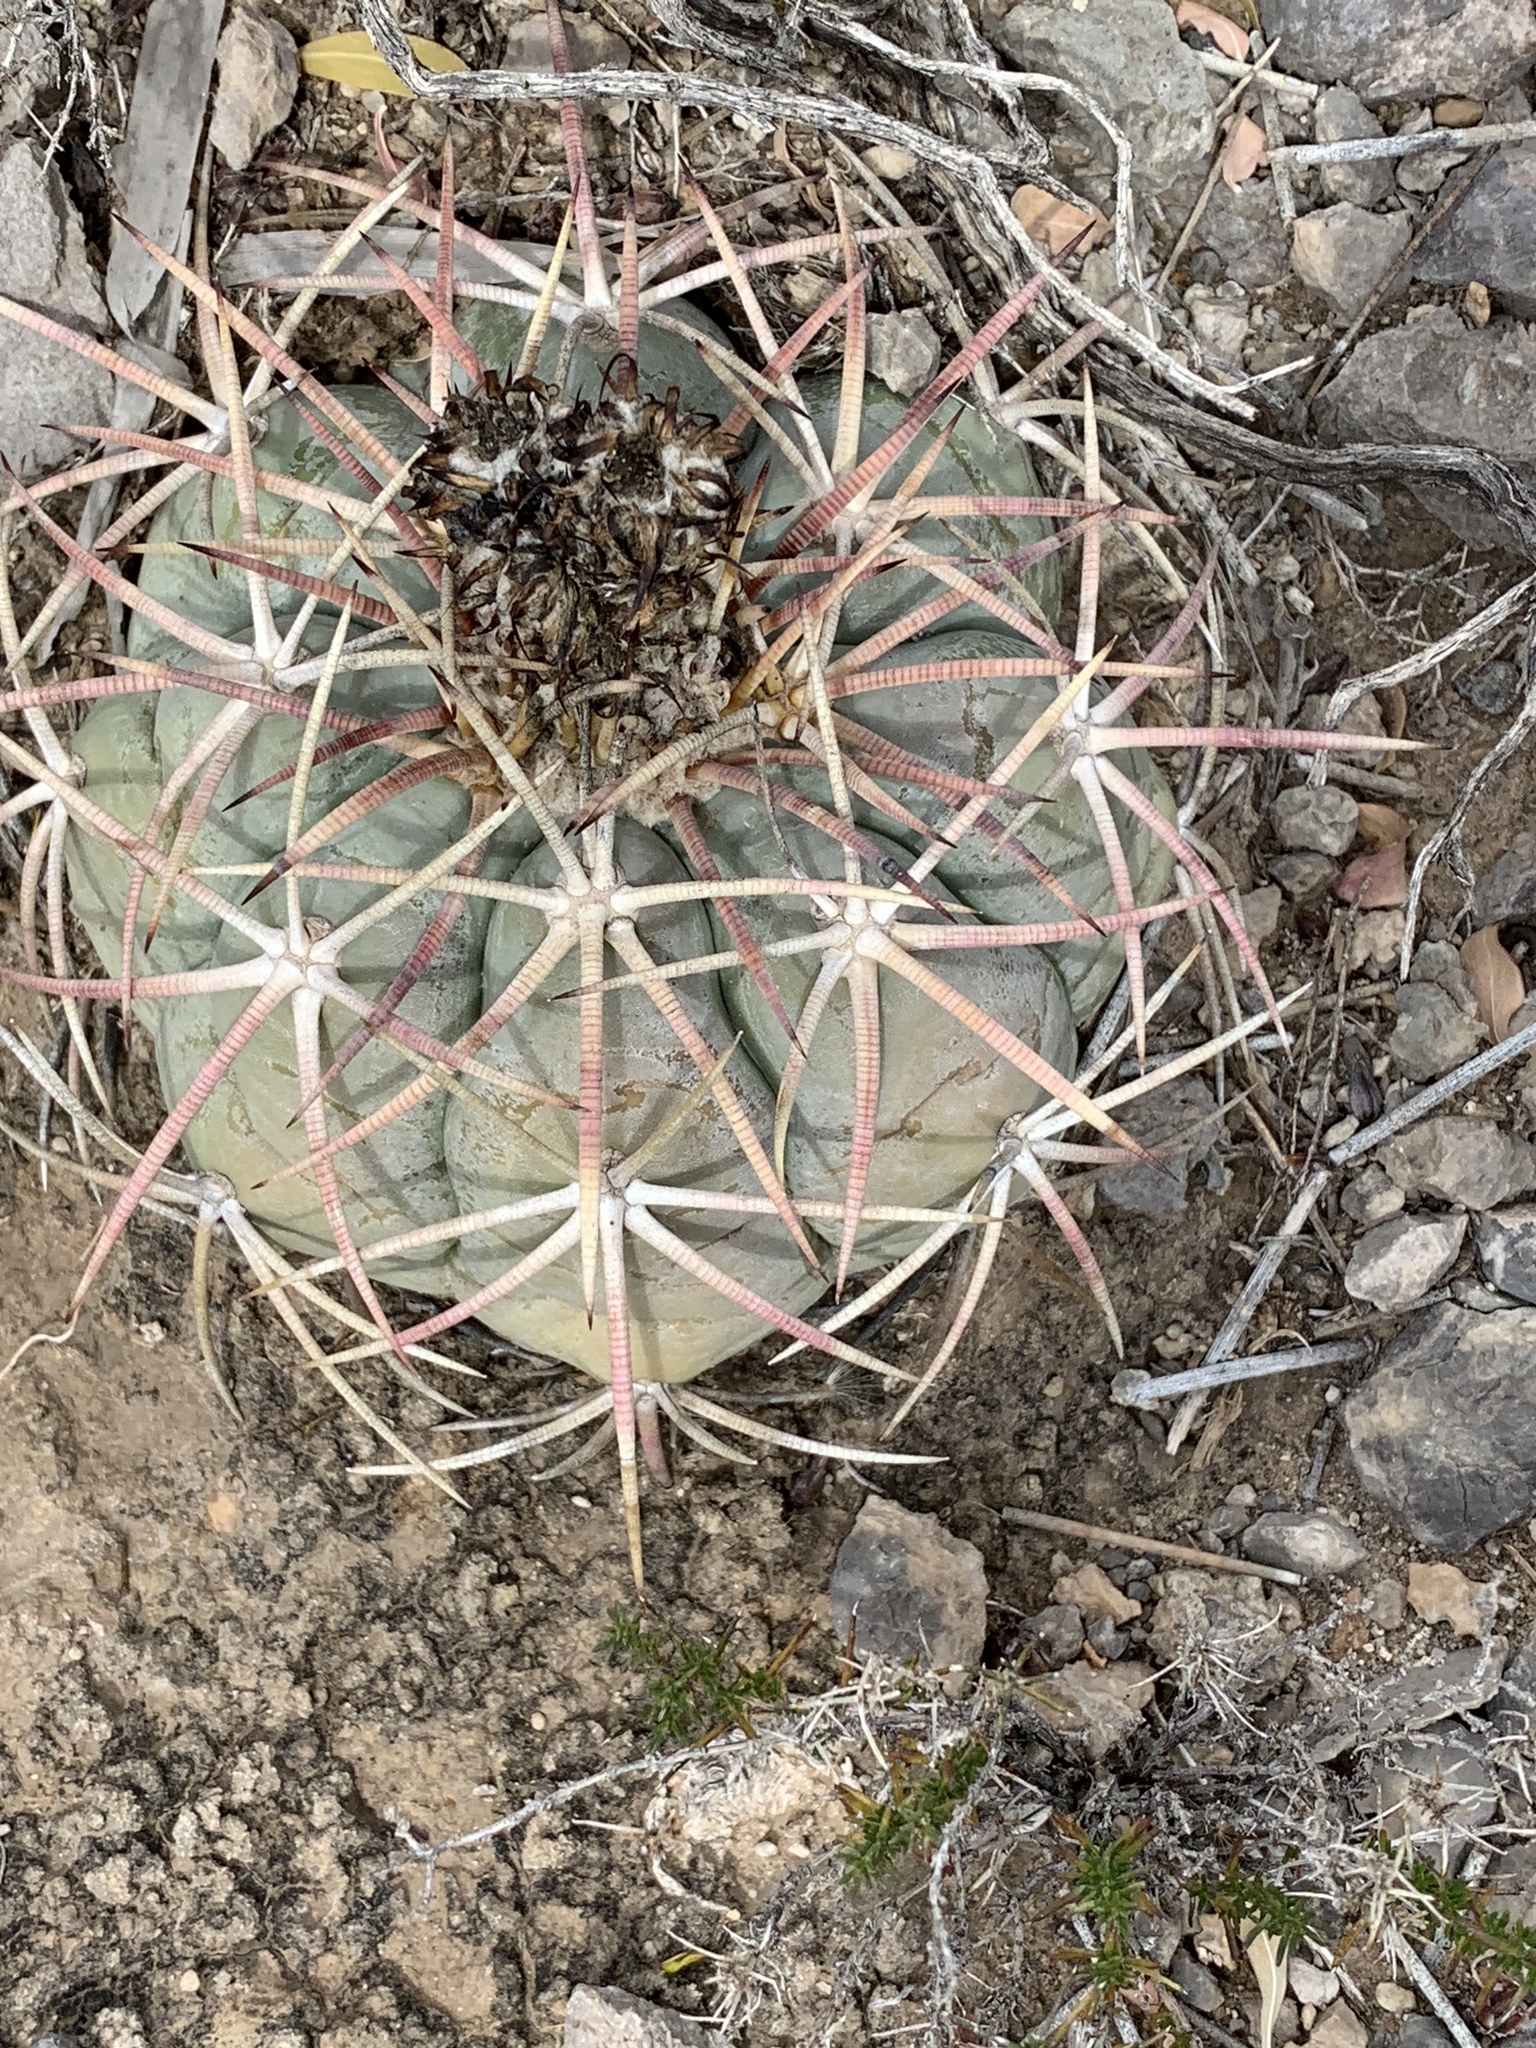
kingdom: Plantae
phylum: Tracheophyta
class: Magnoliopsida
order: Caryophyllales
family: Cactaceae
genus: Echinocactus
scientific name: Echinocactus horizonthalonius
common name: Devilshead
